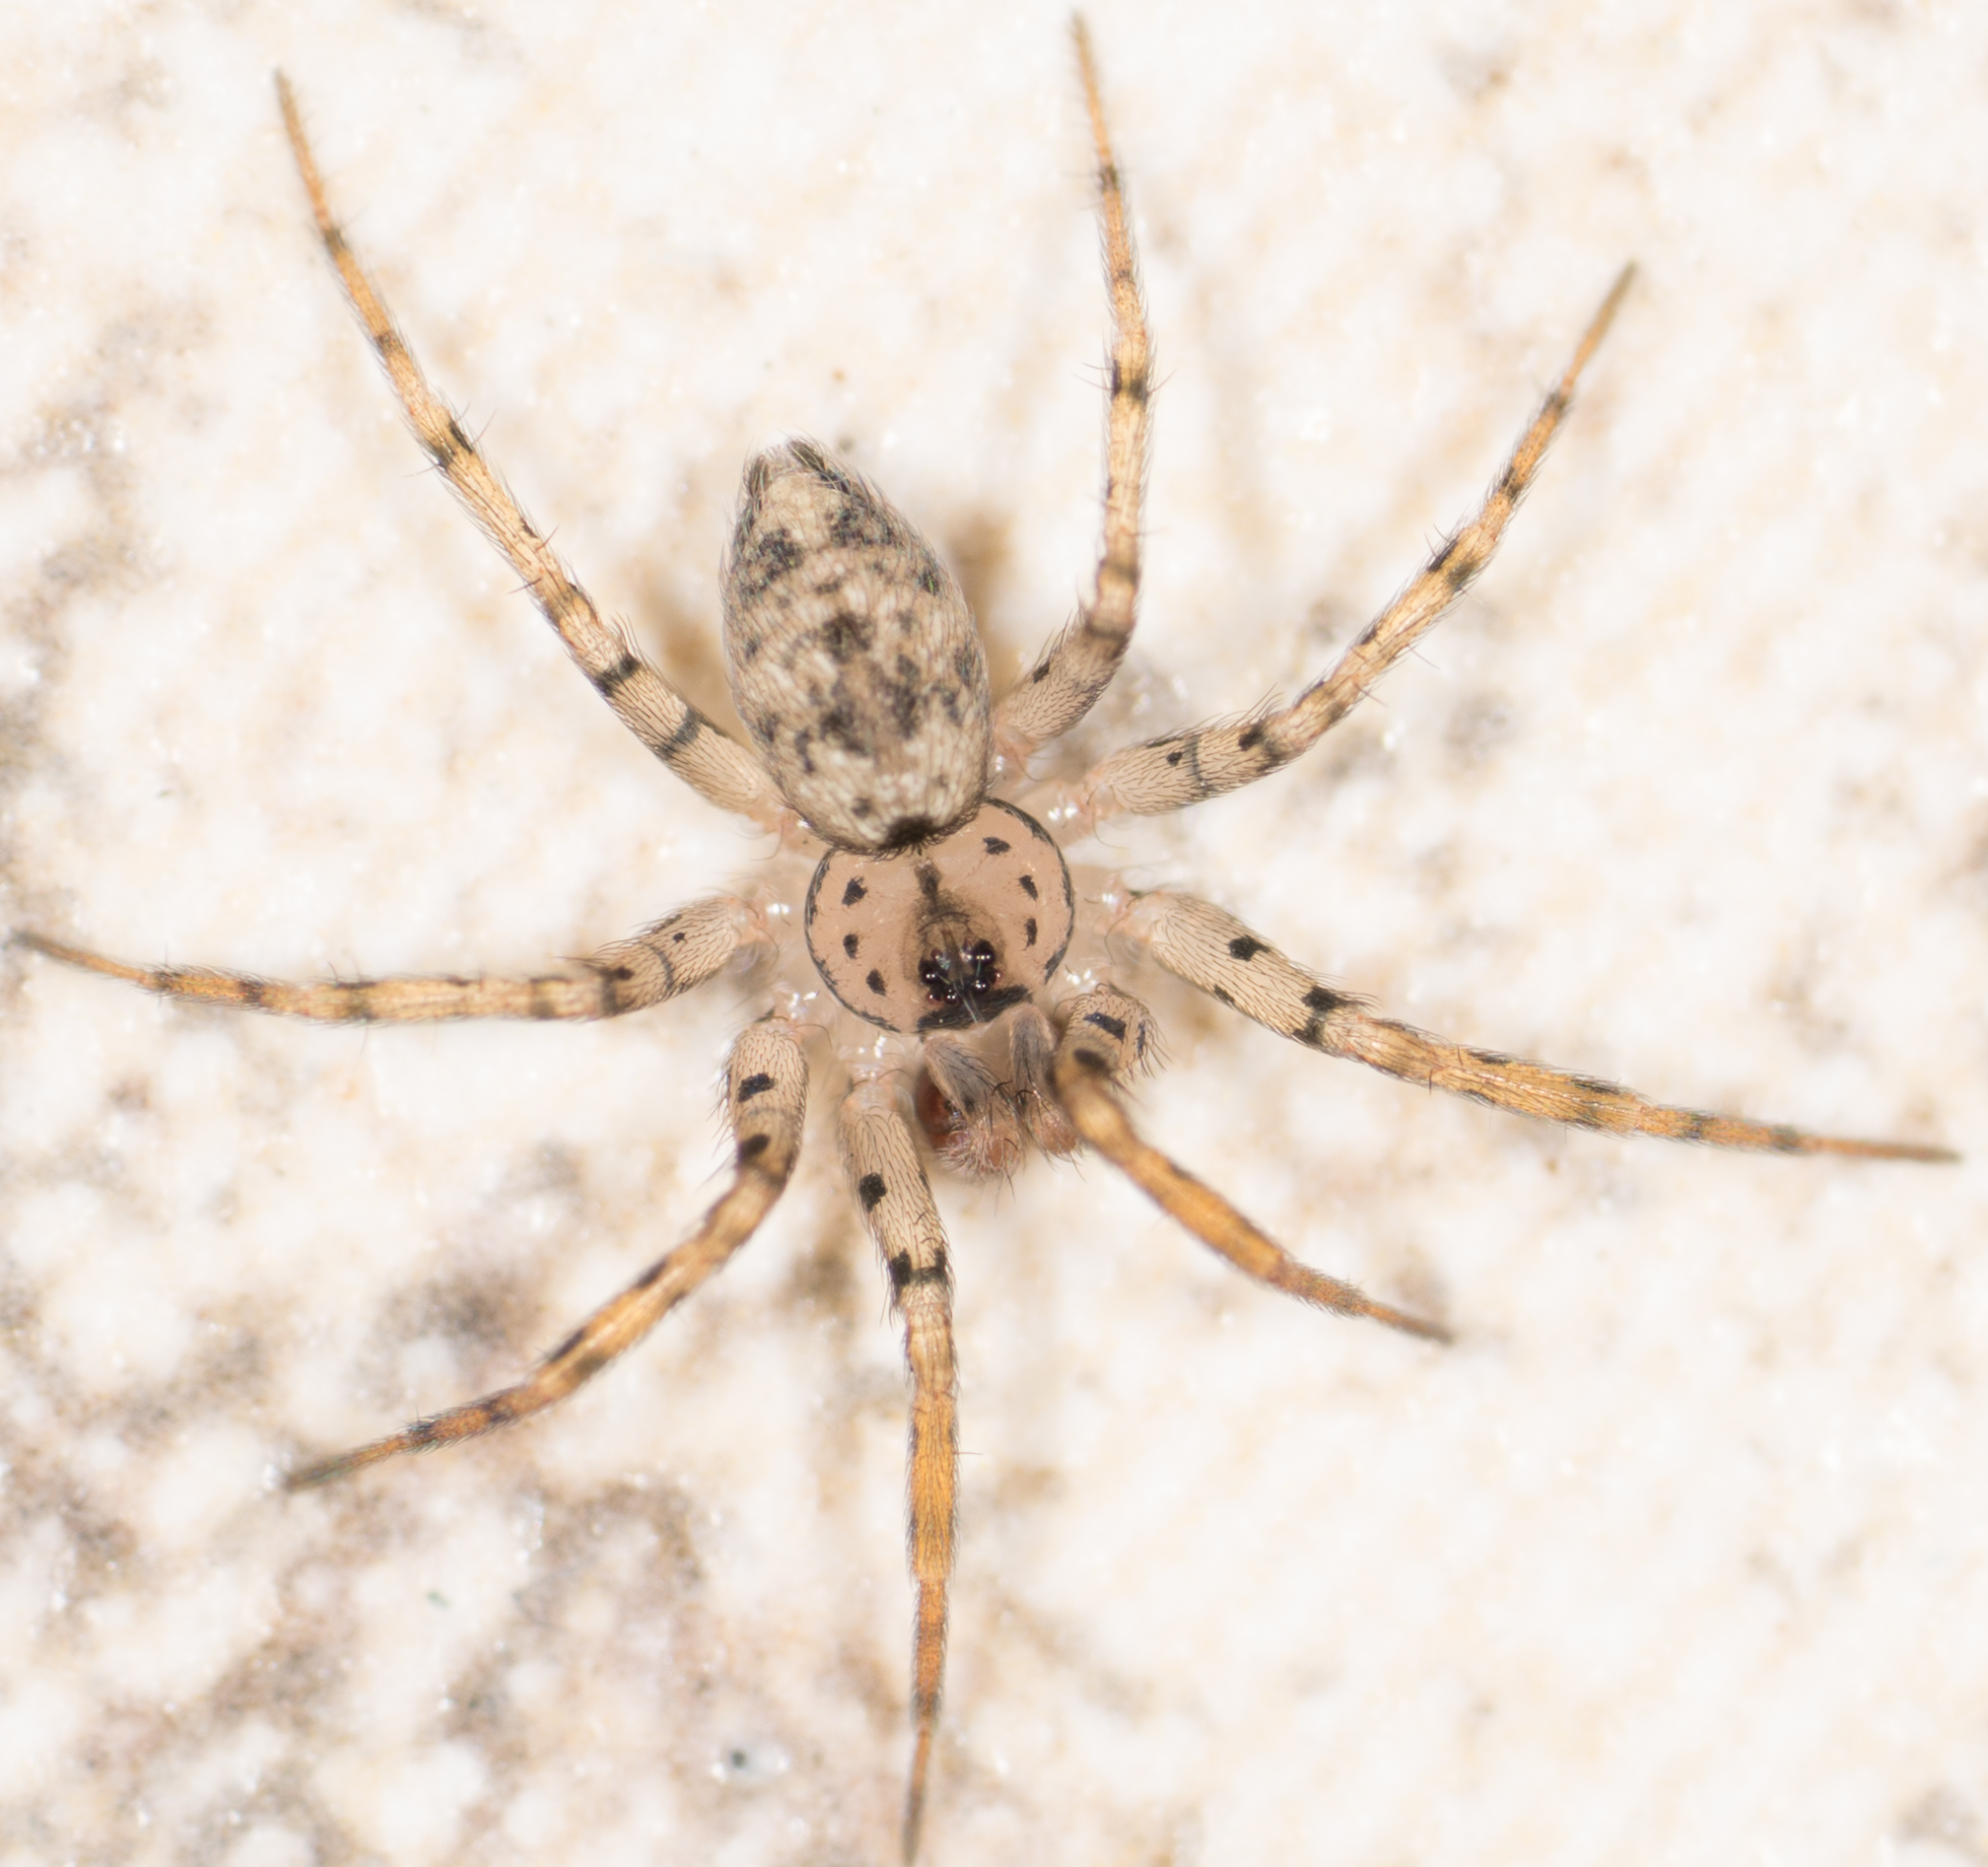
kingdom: Animalia
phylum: Arthropoda
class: Arachnida
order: Araneae
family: Oecobiidae
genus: Oecobius
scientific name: Oecobius navus
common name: Flatmesh weaver
